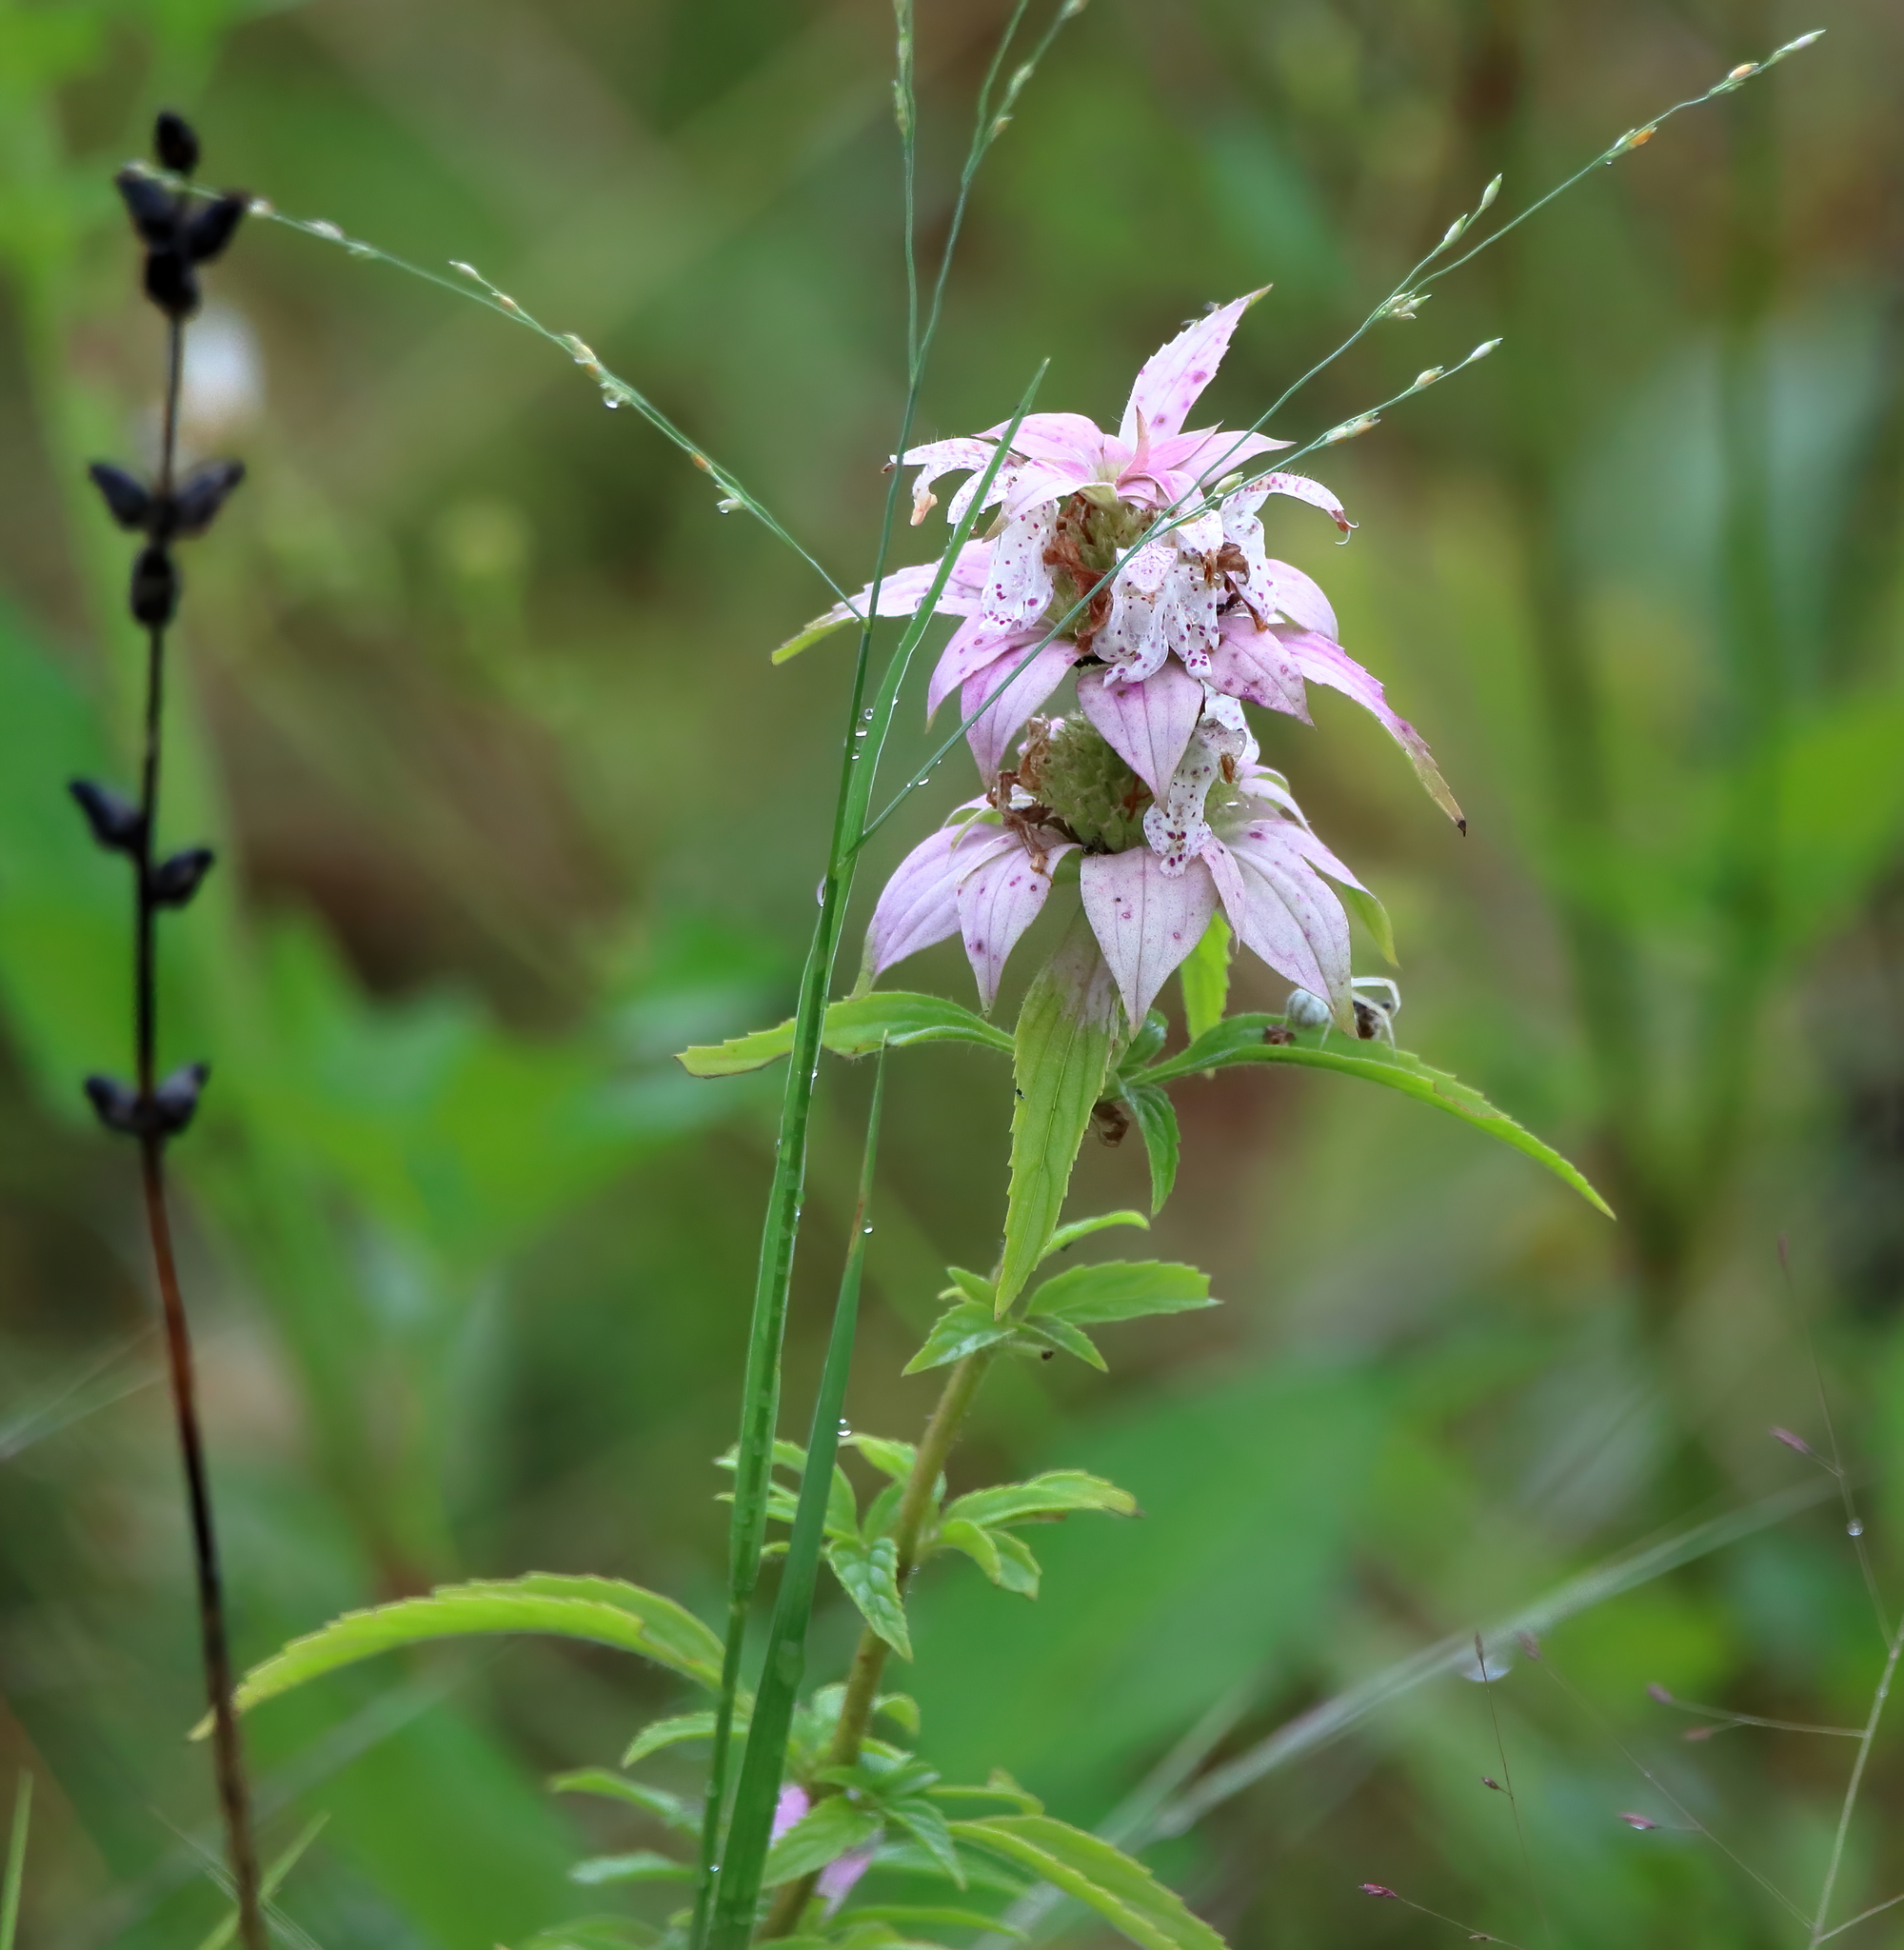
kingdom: Plantae
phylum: Tracheophyta
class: Magnoliopsida
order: Lamiales
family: Lamiaceae
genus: Monarda
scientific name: Monarda punctata
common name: Dotted monarda
